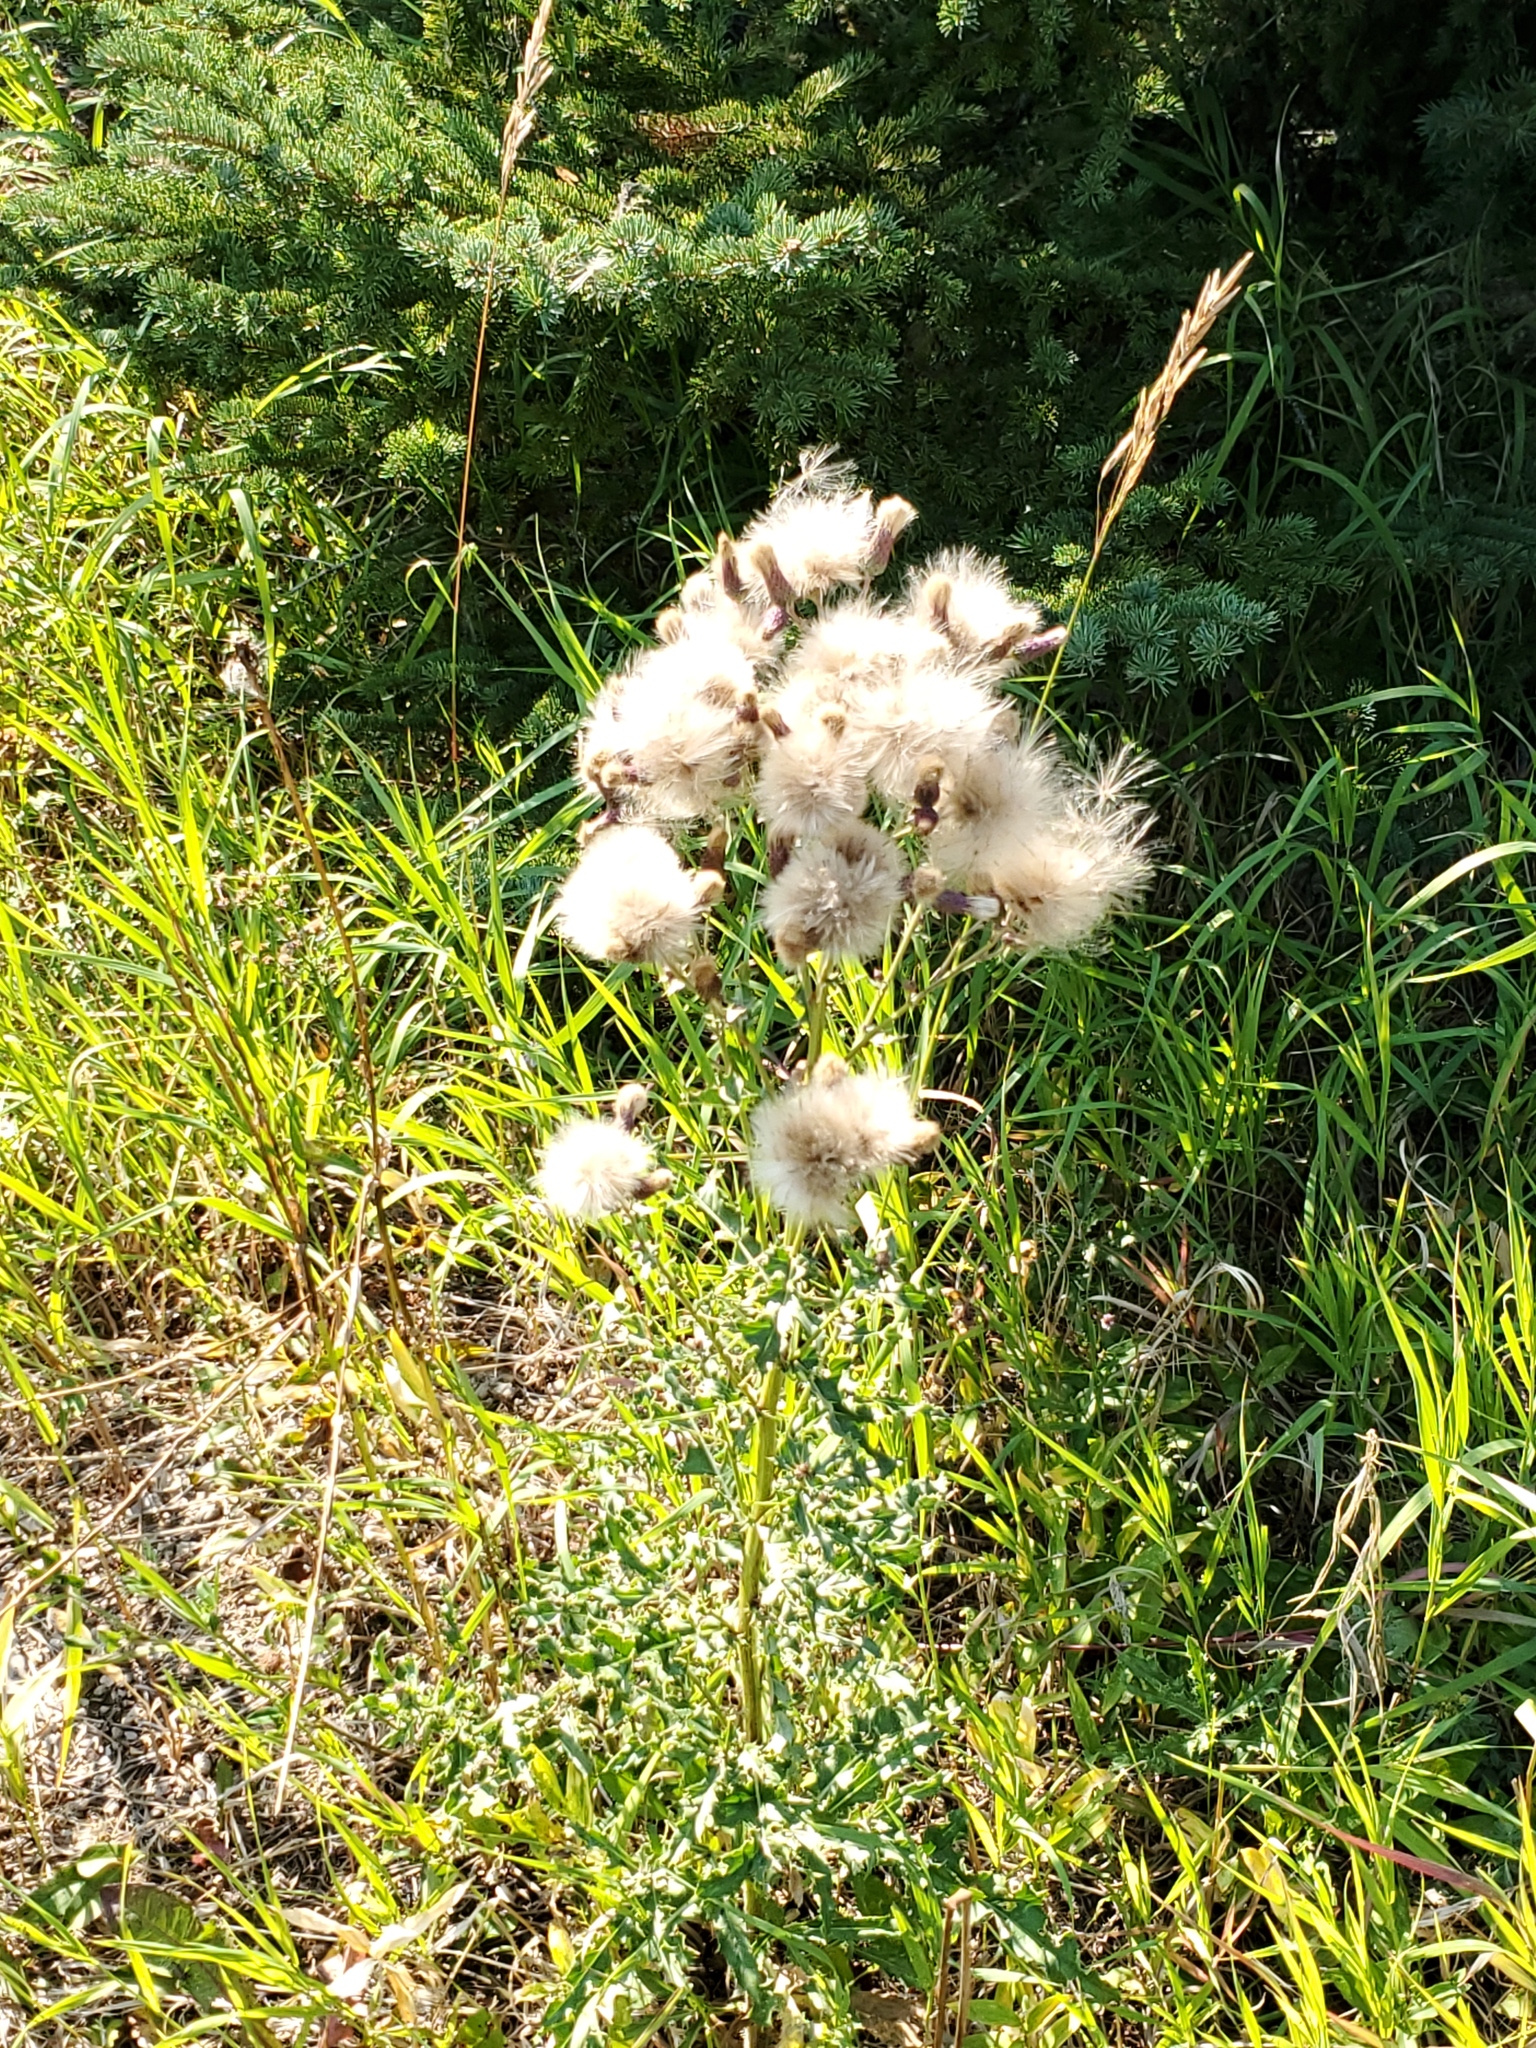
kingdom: Plantae
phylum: Tracheophyta
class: Magnoliopsida
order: Asterales
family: Asteraceae
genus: Cirsium
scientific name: Cirsium arvense
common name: Creeping thistle
